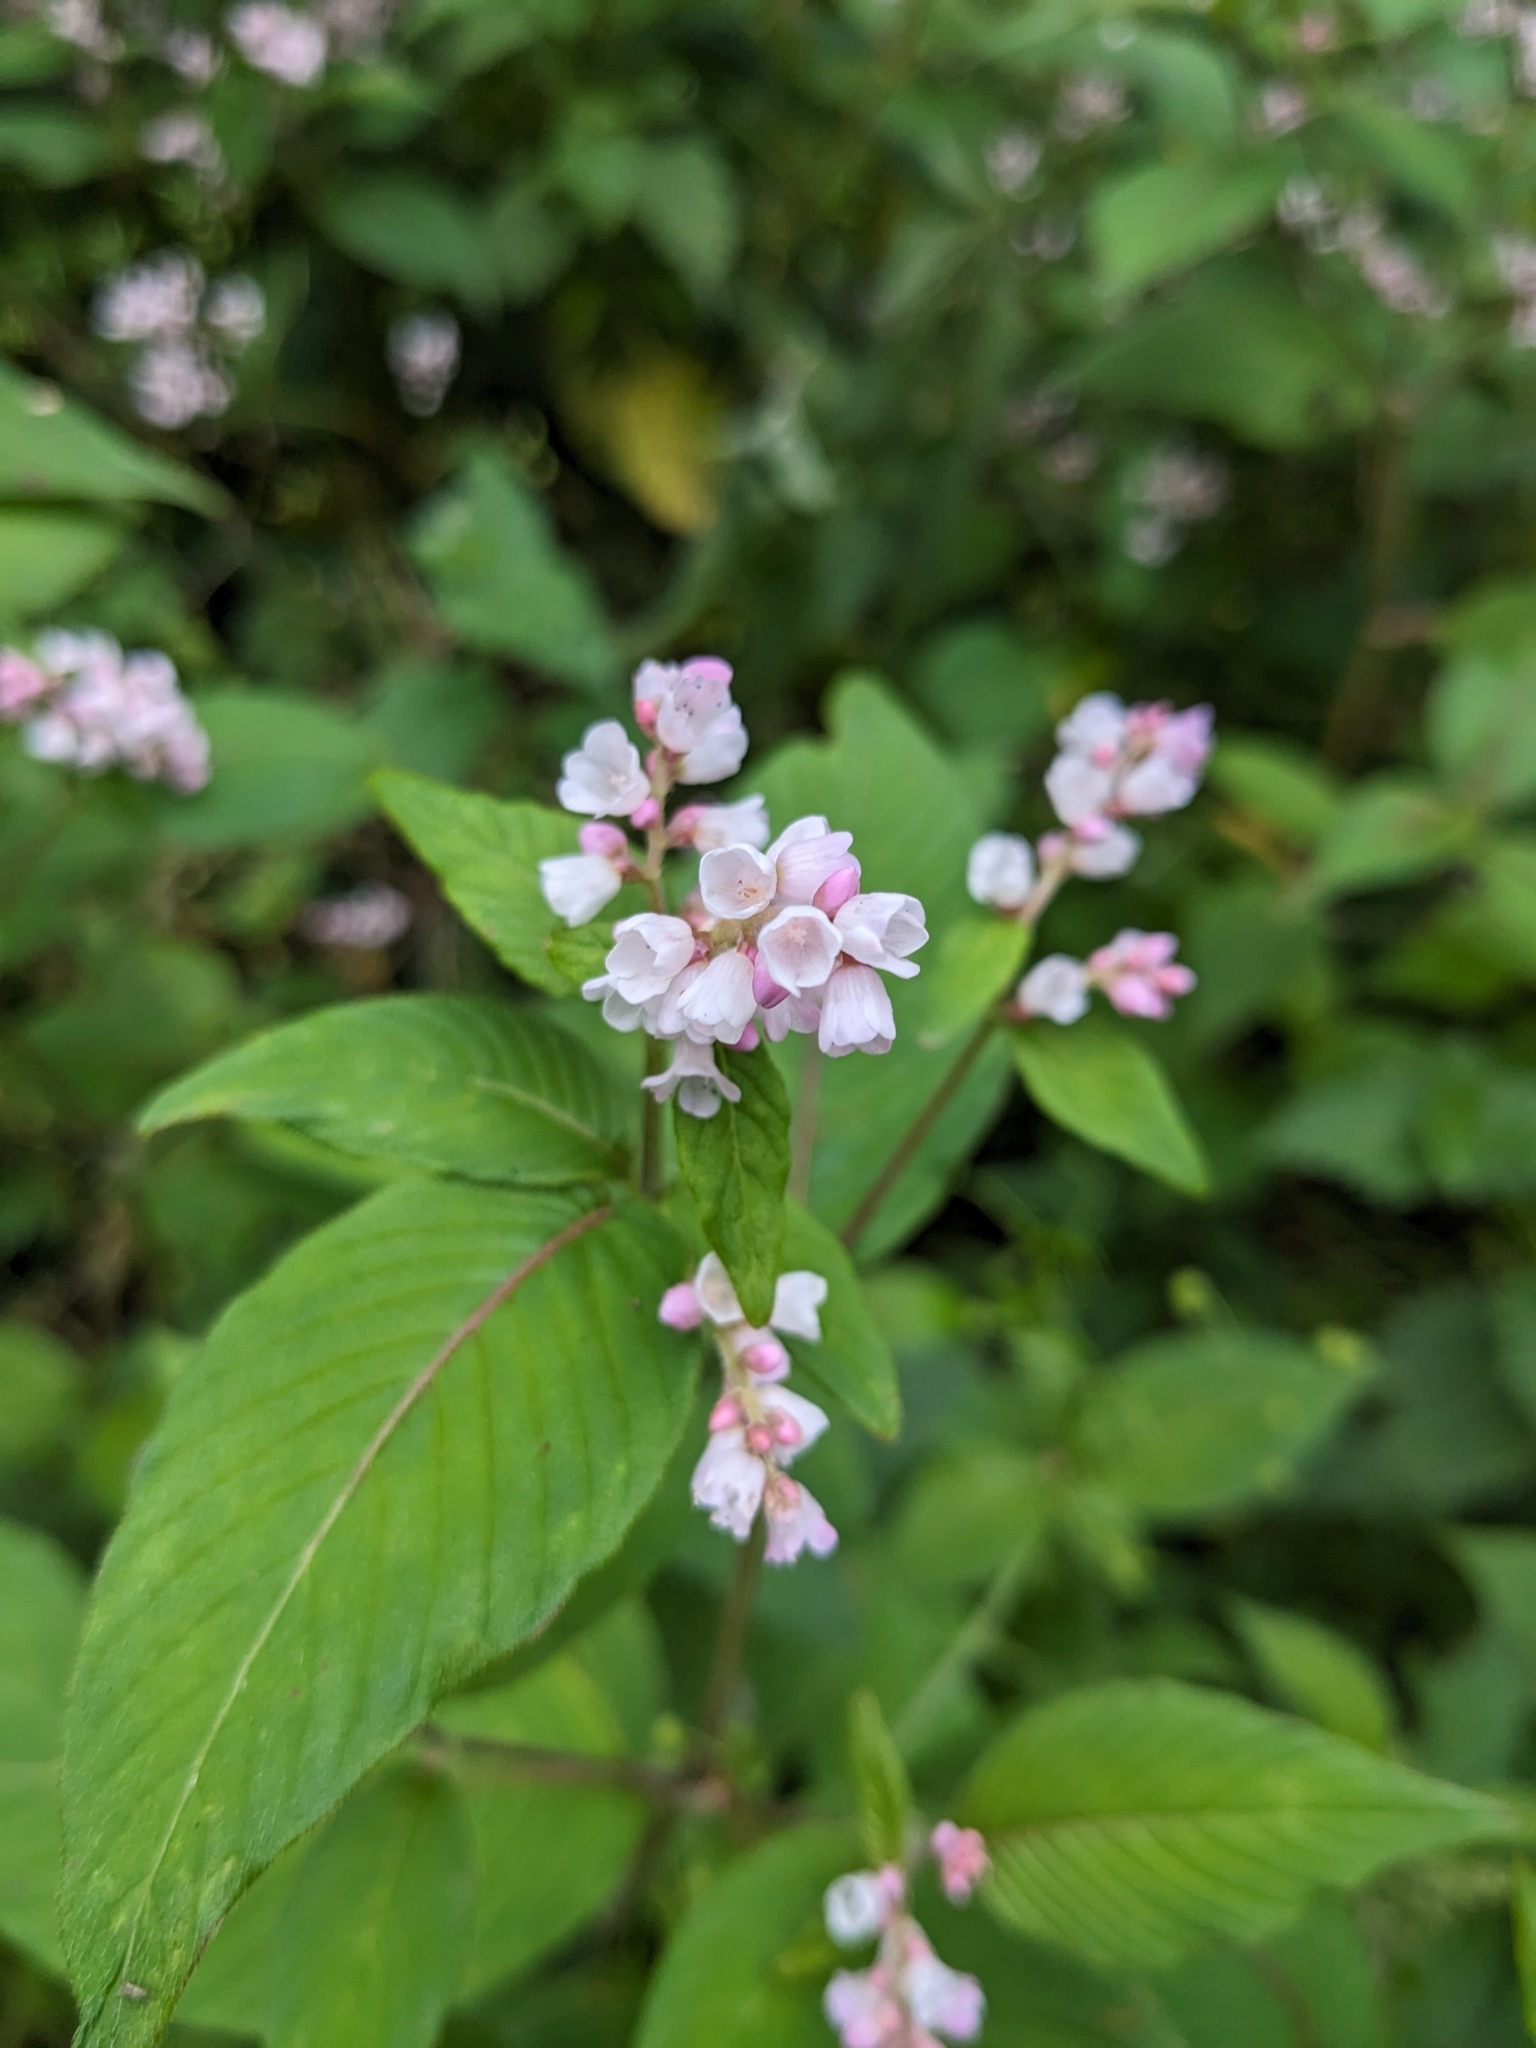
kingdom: Plantae
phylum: Tracheophyta
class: Magnoliopsida
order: Caryophyllales
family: Polygonaceae
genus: Koenigia
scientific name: Koenigia campanulata
